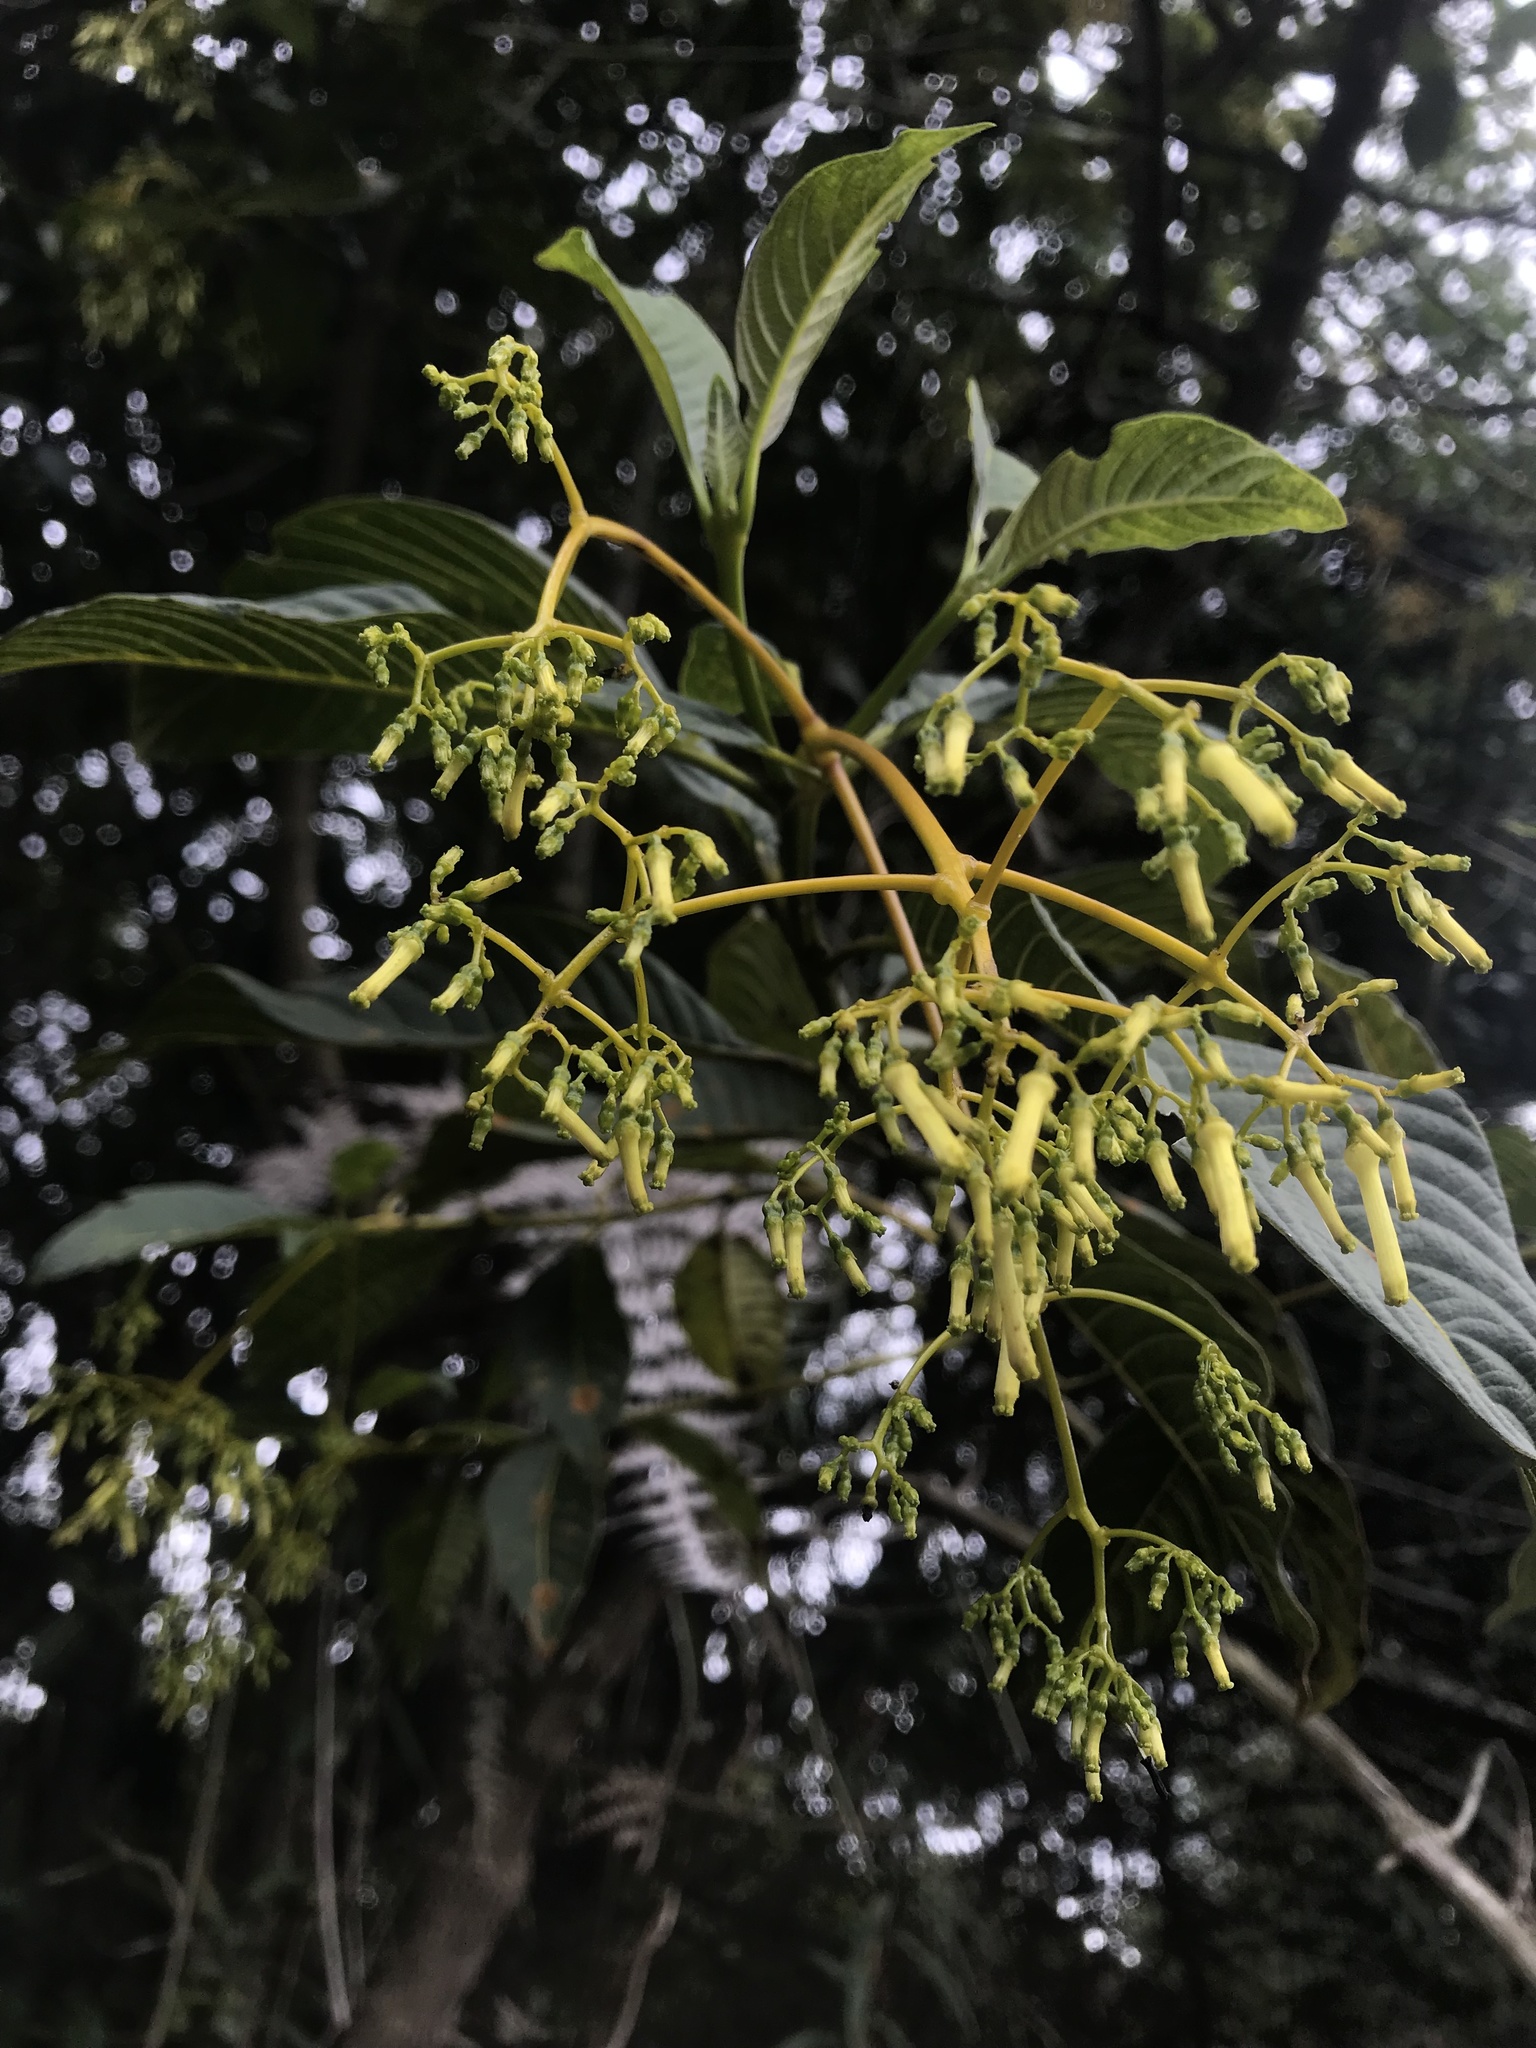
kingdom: Plantae
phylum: Tracheophyta
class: Magnoliopsida
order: Gentianales
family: Rubiaceae
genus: Palicourea
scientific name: Palicourea lineariflora
